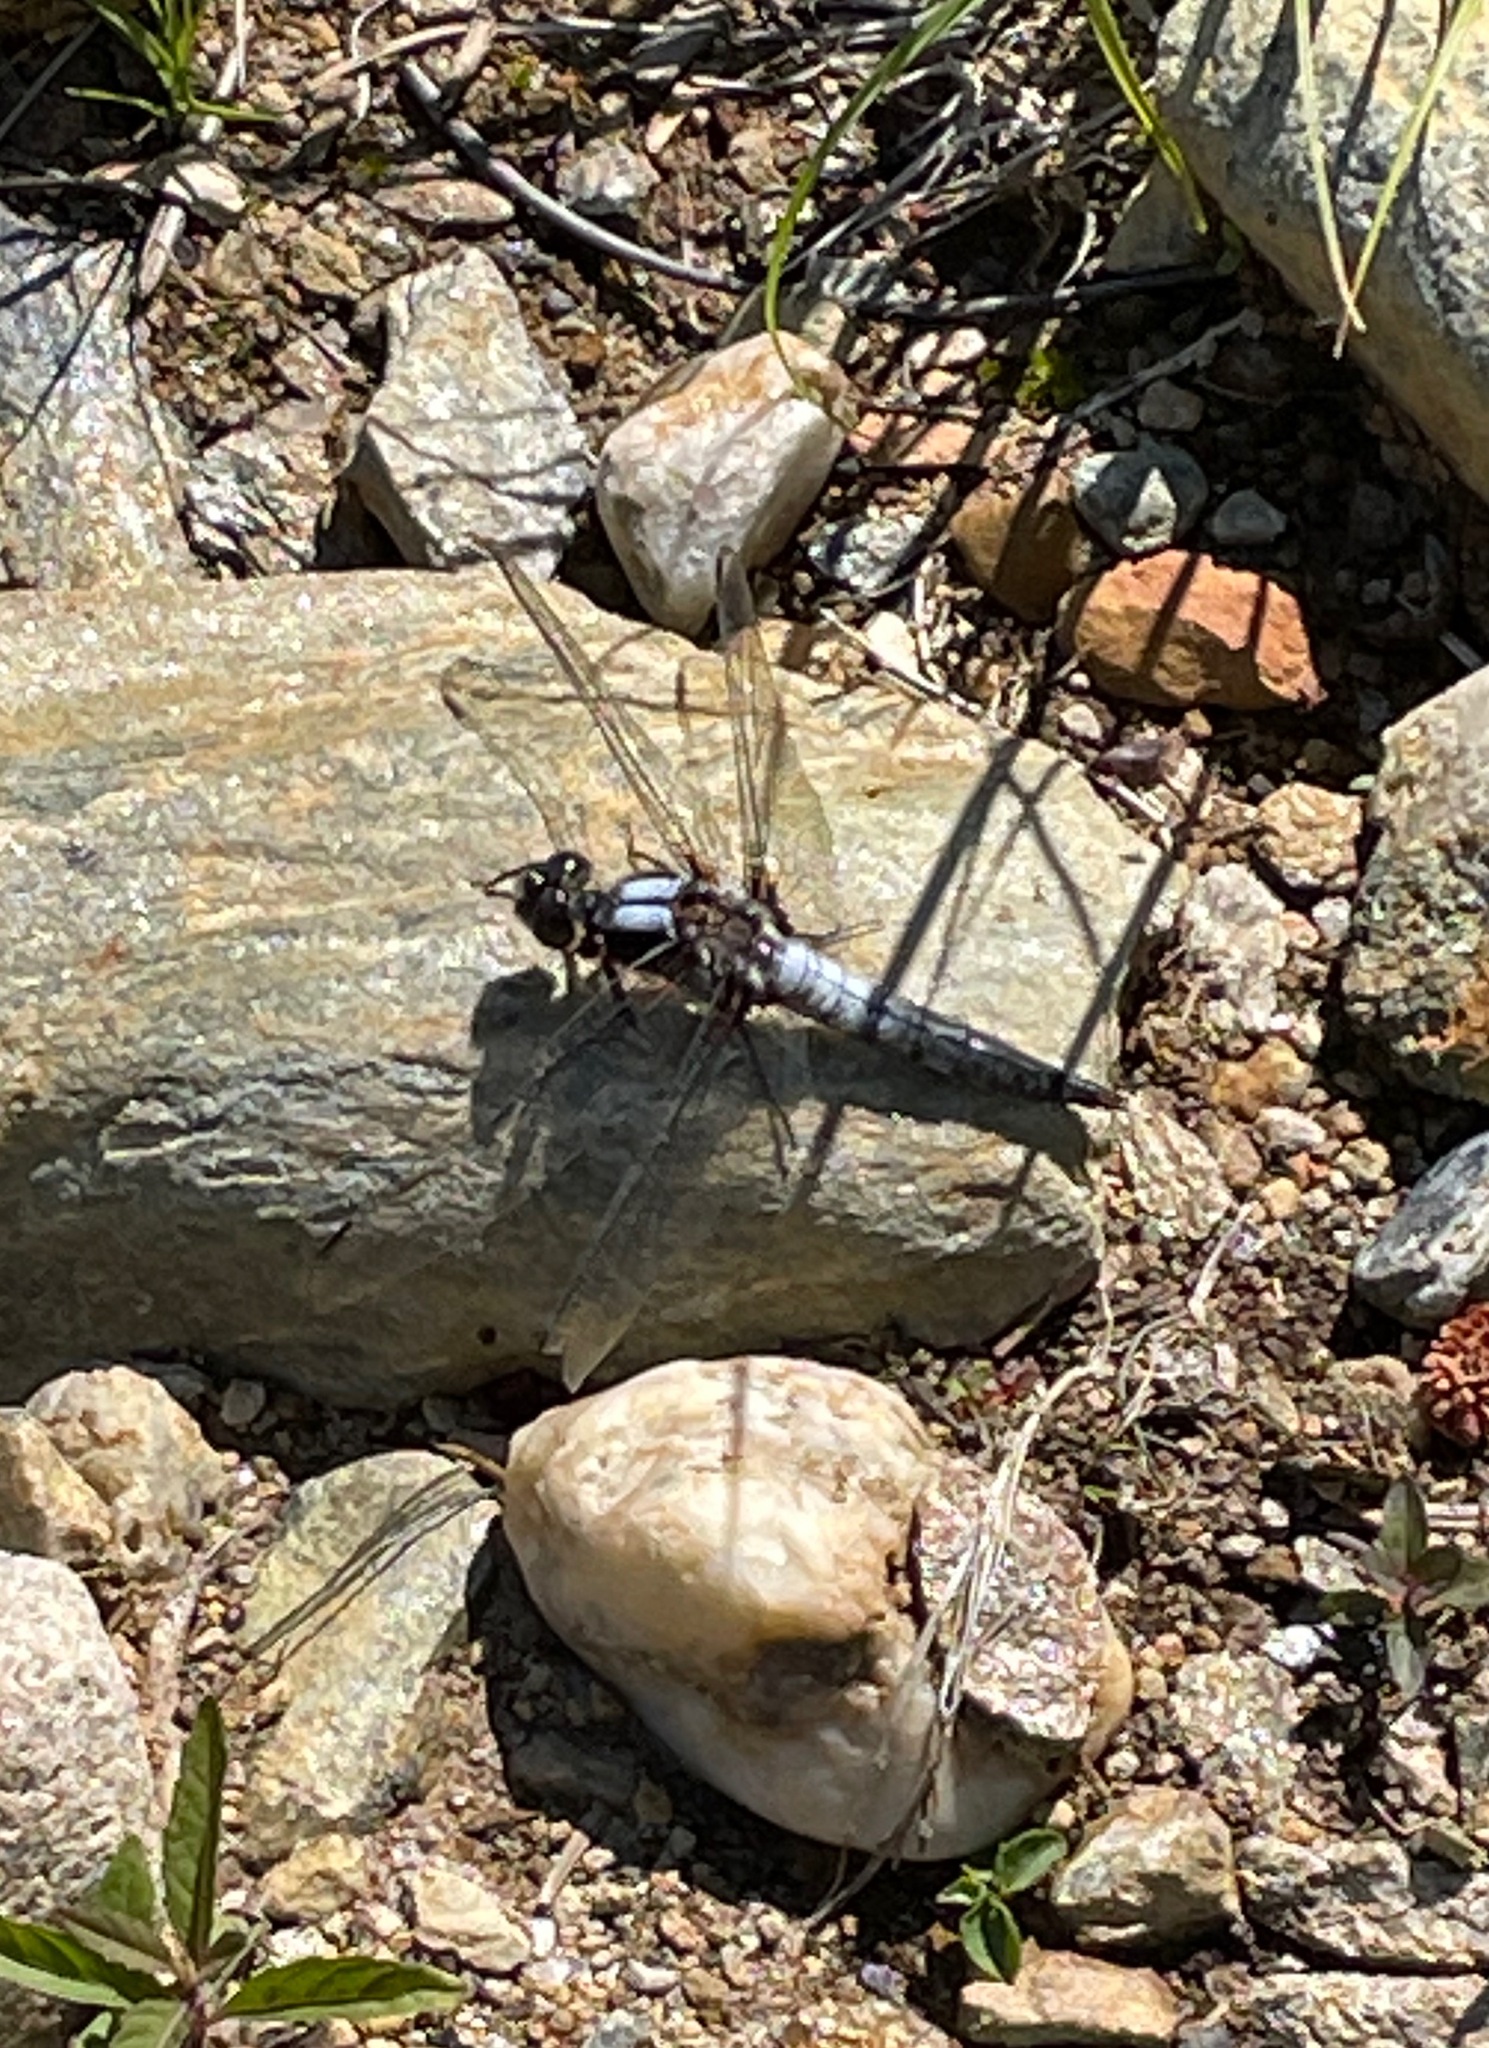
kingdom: Animalia
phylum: Arthropoda
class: Insecta
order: Odonata
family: Libellulidae
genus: Ladona
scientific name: Ladona julia
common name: Chalk-fronted corporal
